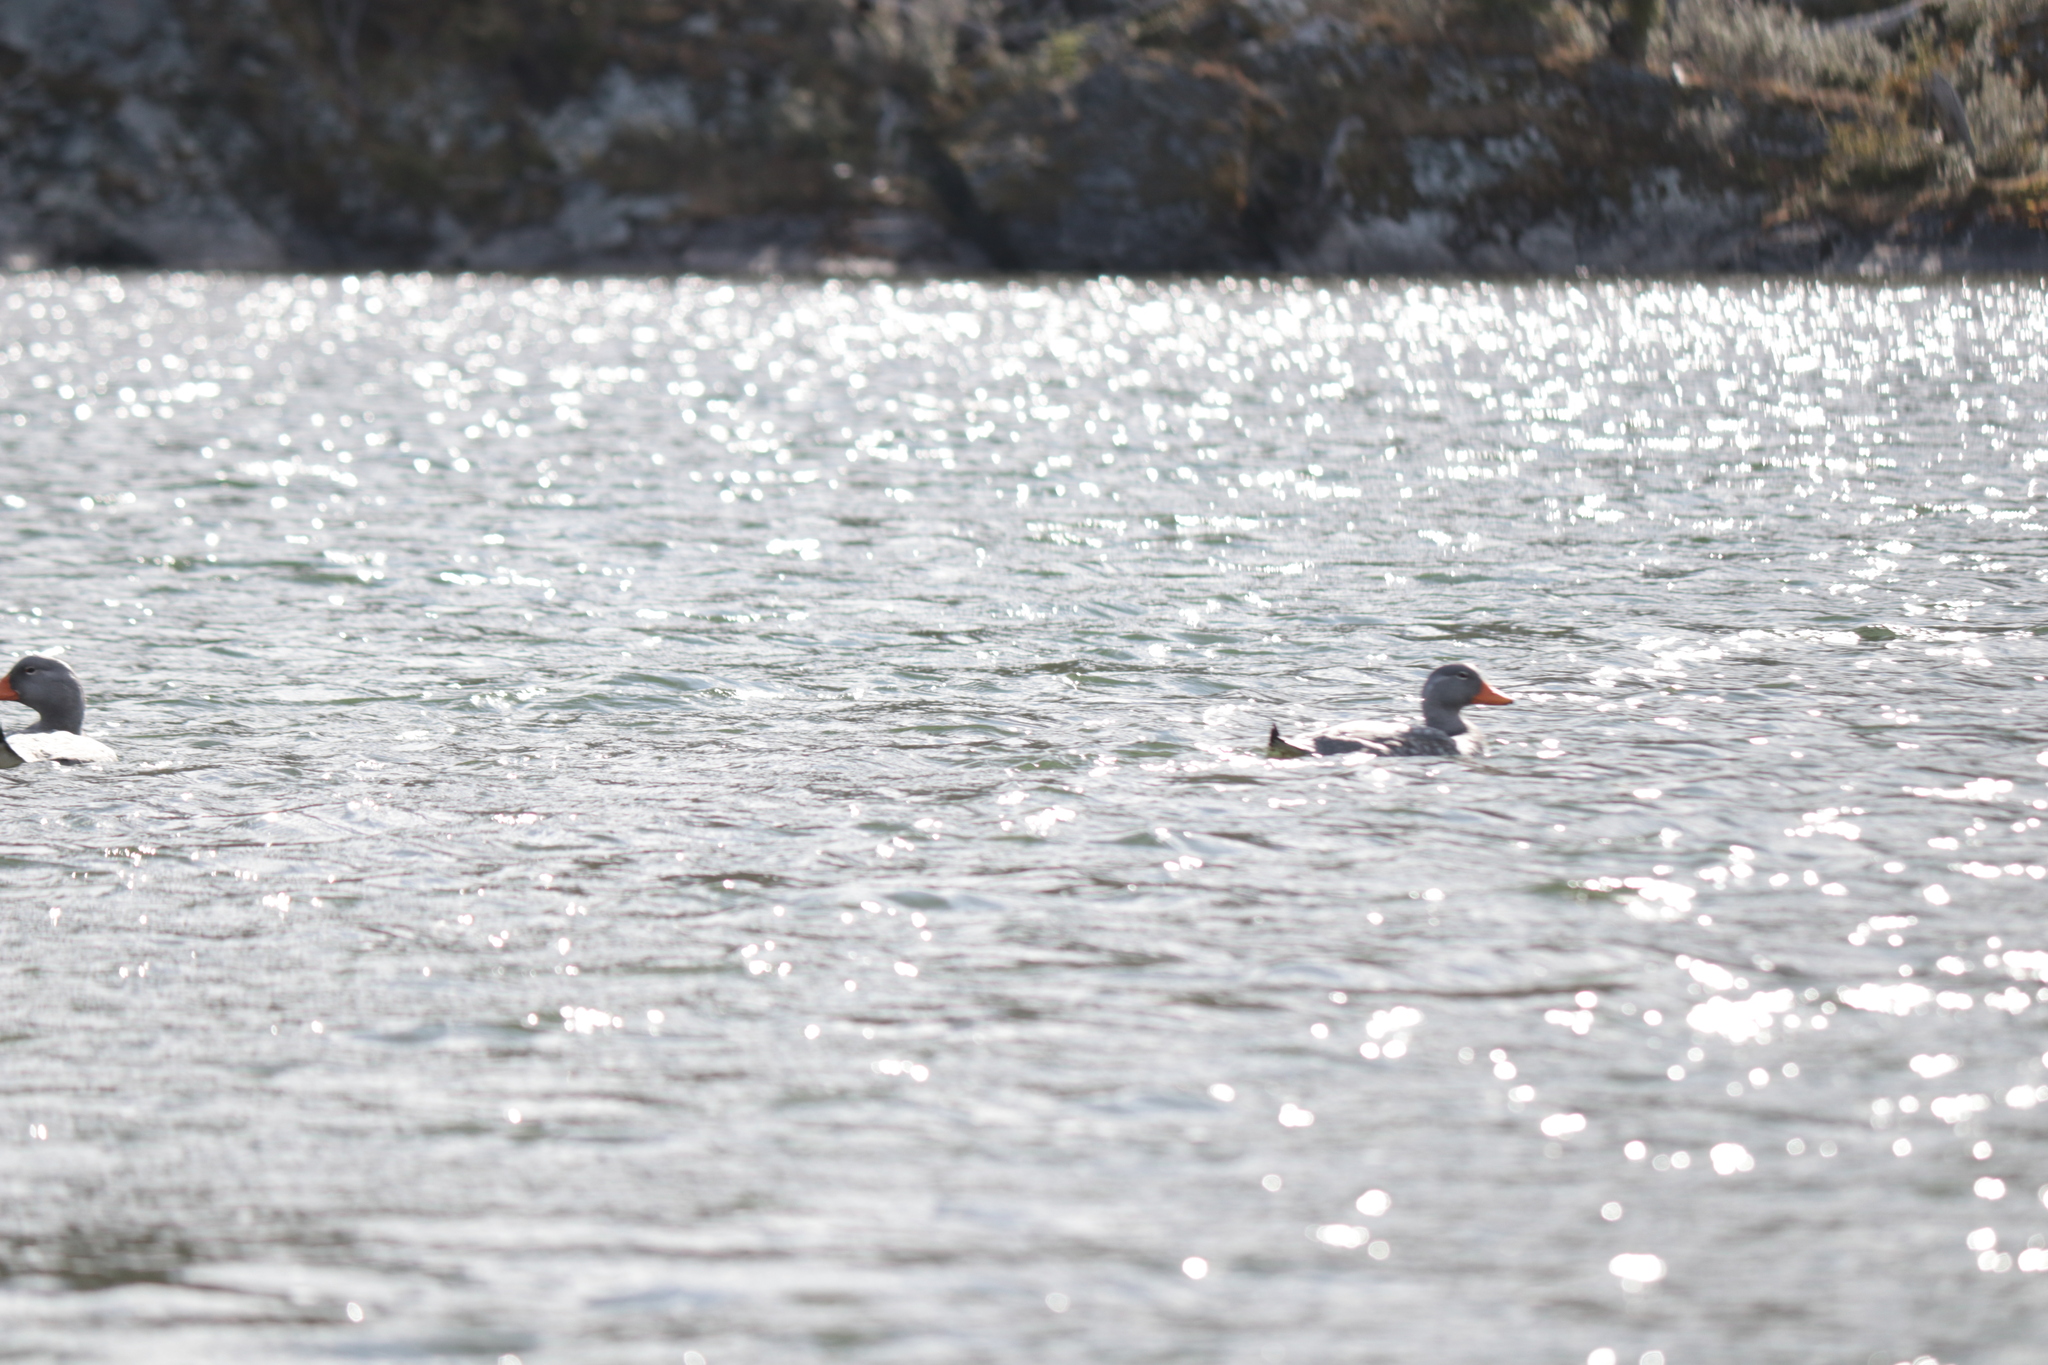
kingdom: Animalia
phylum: Chordata
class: Aves
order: Anseriformes
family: Anatidae
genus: Tachyeres
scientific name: Tachyeres pteneres
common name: Fuegian steamer duck
